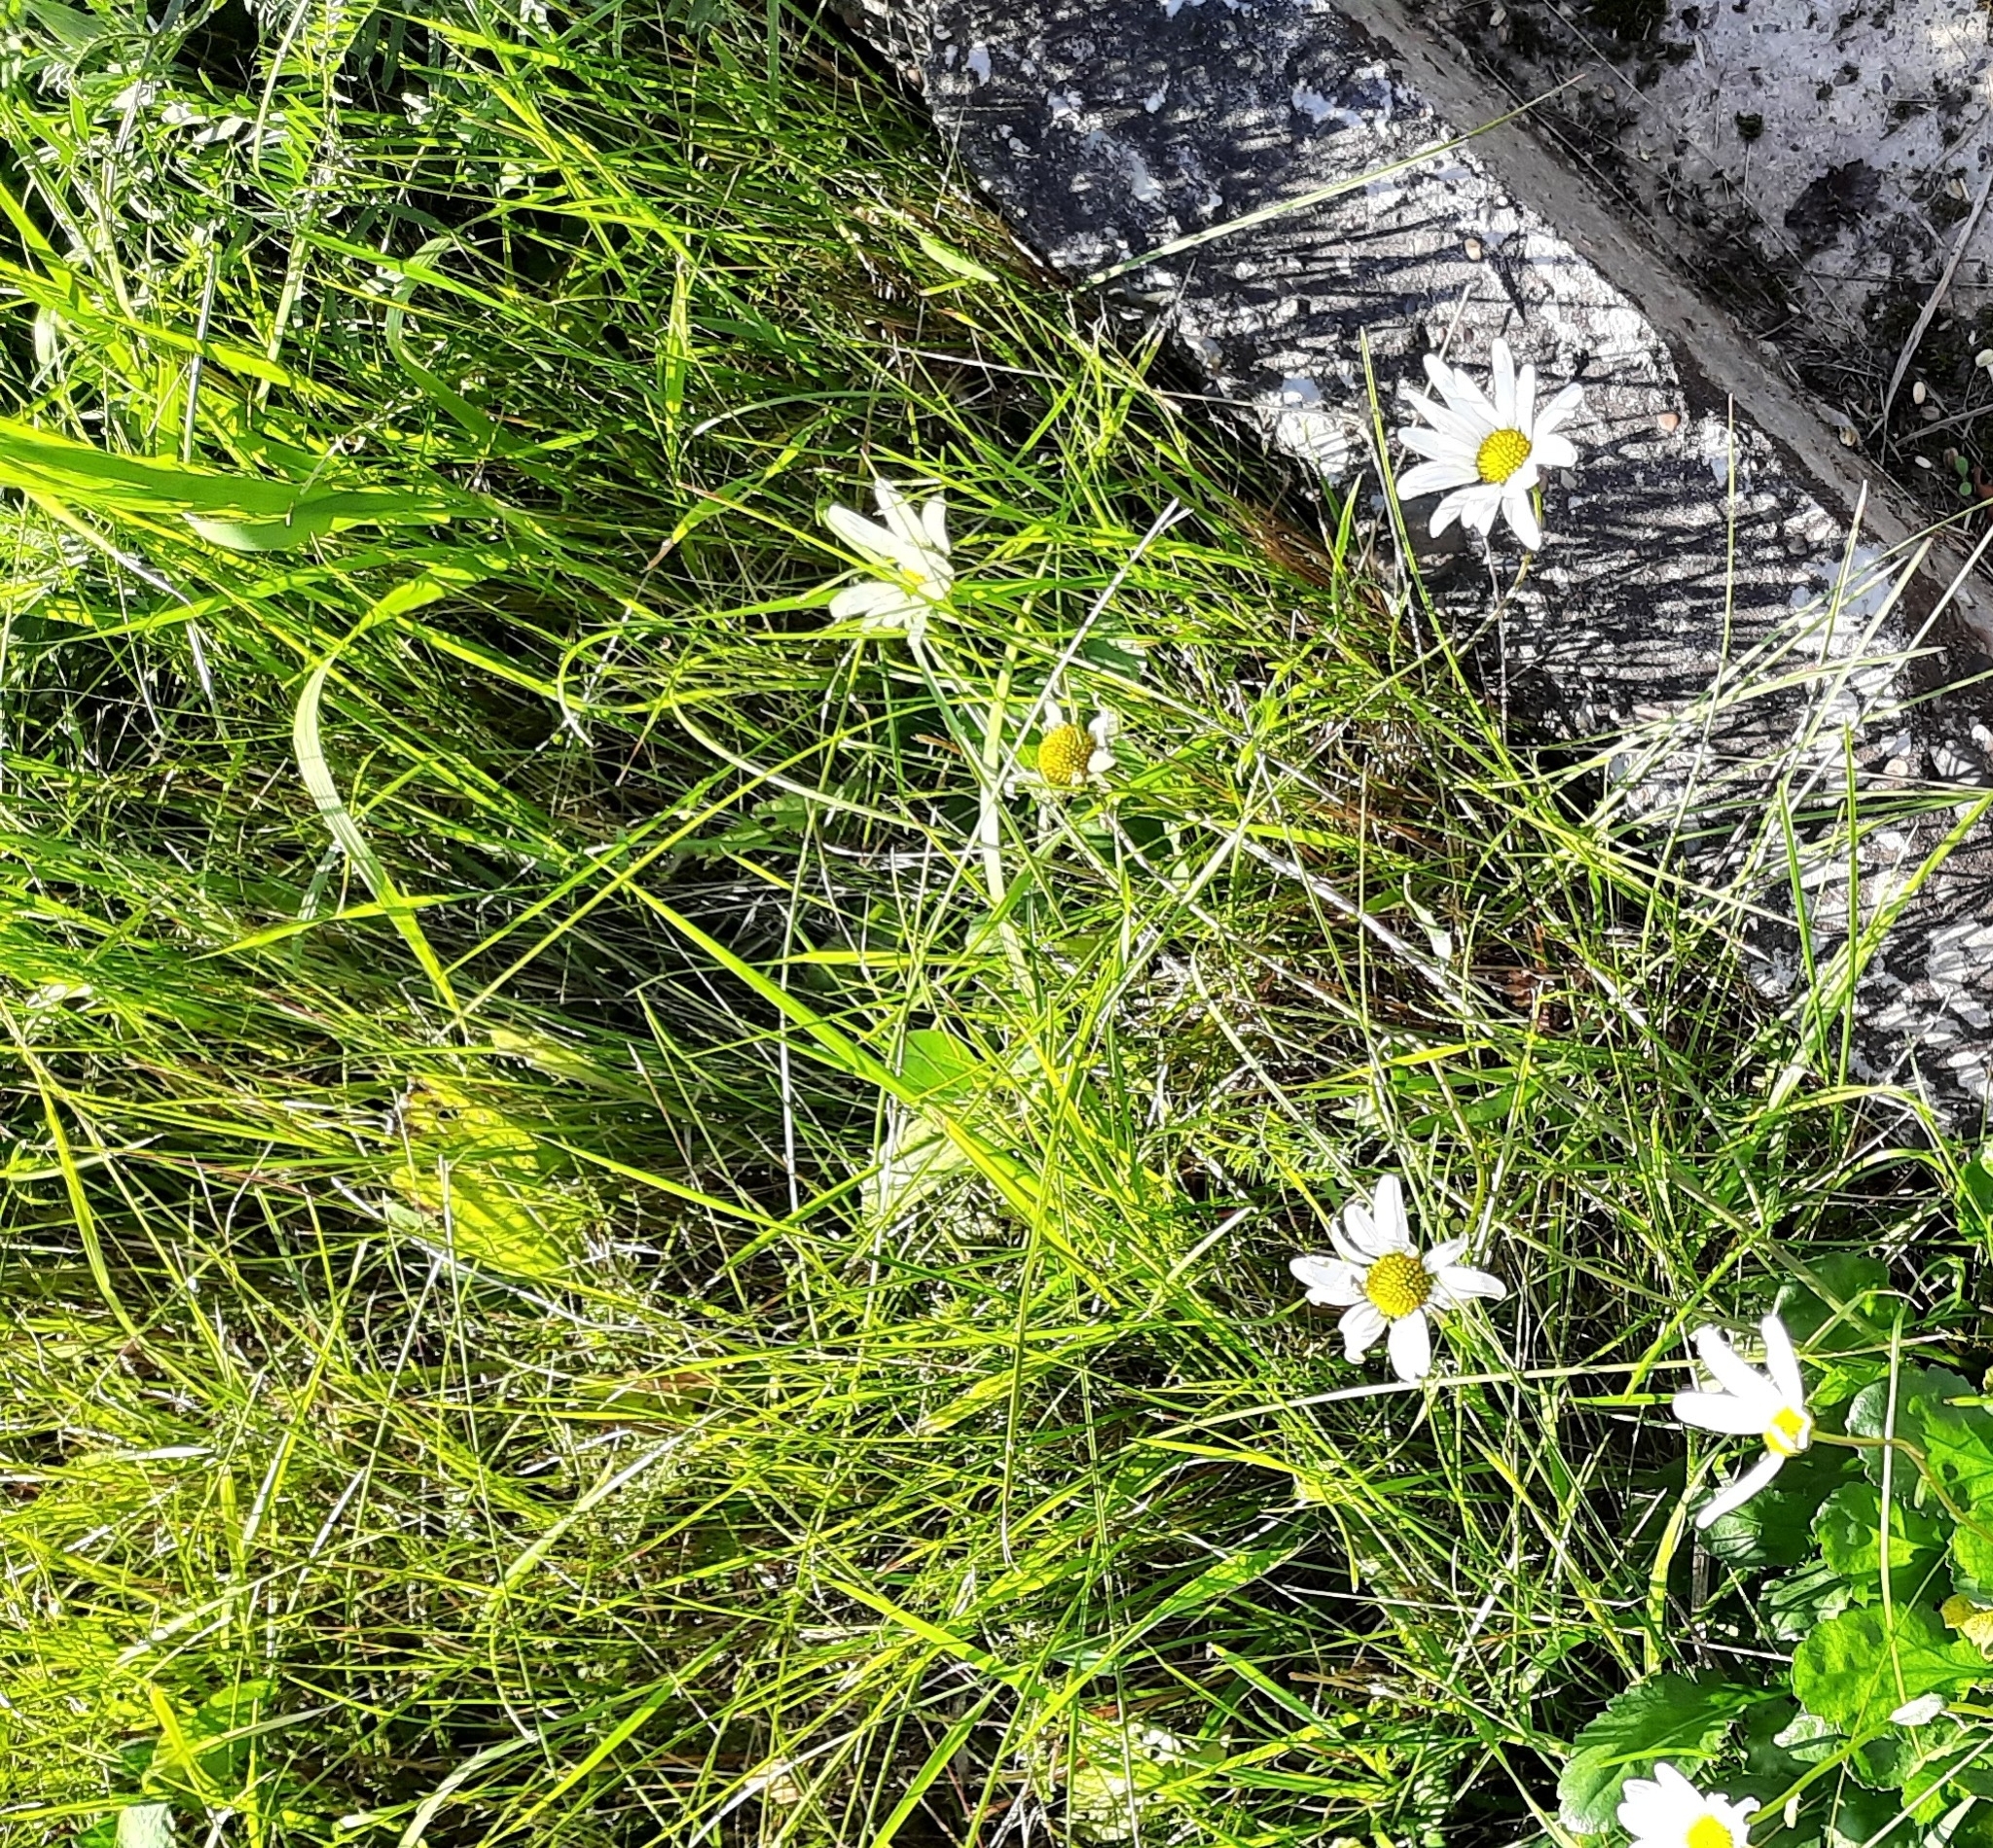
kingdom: Plantae
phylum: Tracheophyta
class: Magnoliopsida
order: Asterales
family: Asteraceae
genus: Leucanthemum
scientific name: Leucanthemum ircutianum
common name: Daisy
